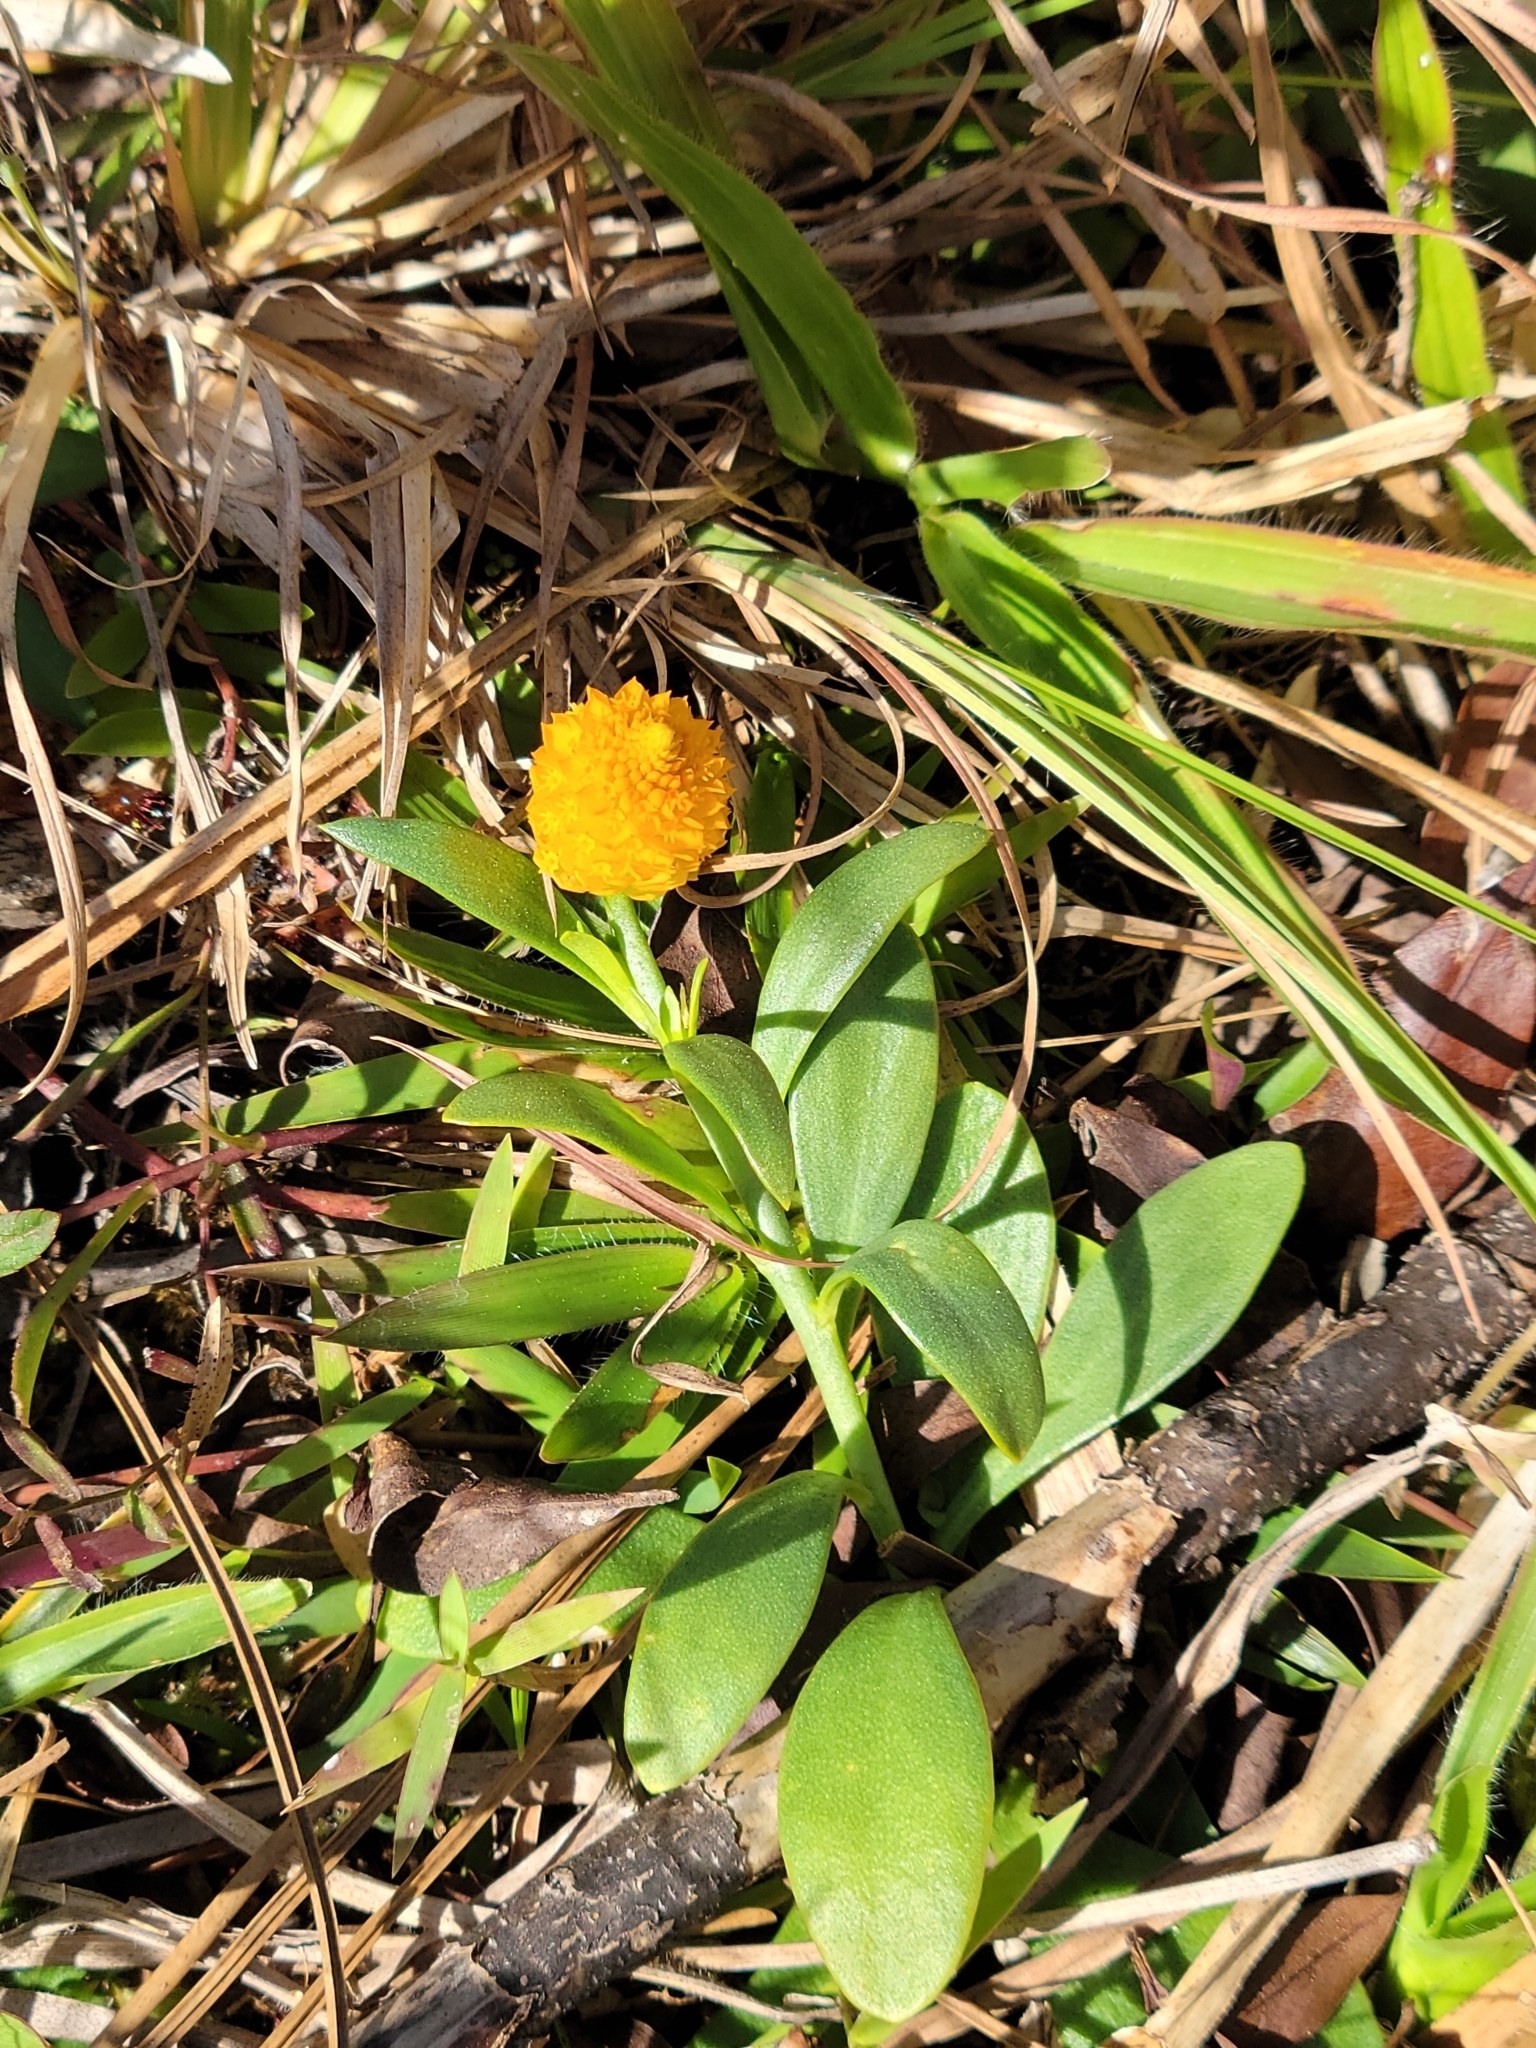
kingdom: Plantae
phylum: Tracheophyta
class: Magnoliopsida
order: Fabales
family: Polygalaceae
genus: Polygala
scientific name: Polygala lutea
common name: Orange milkwort
